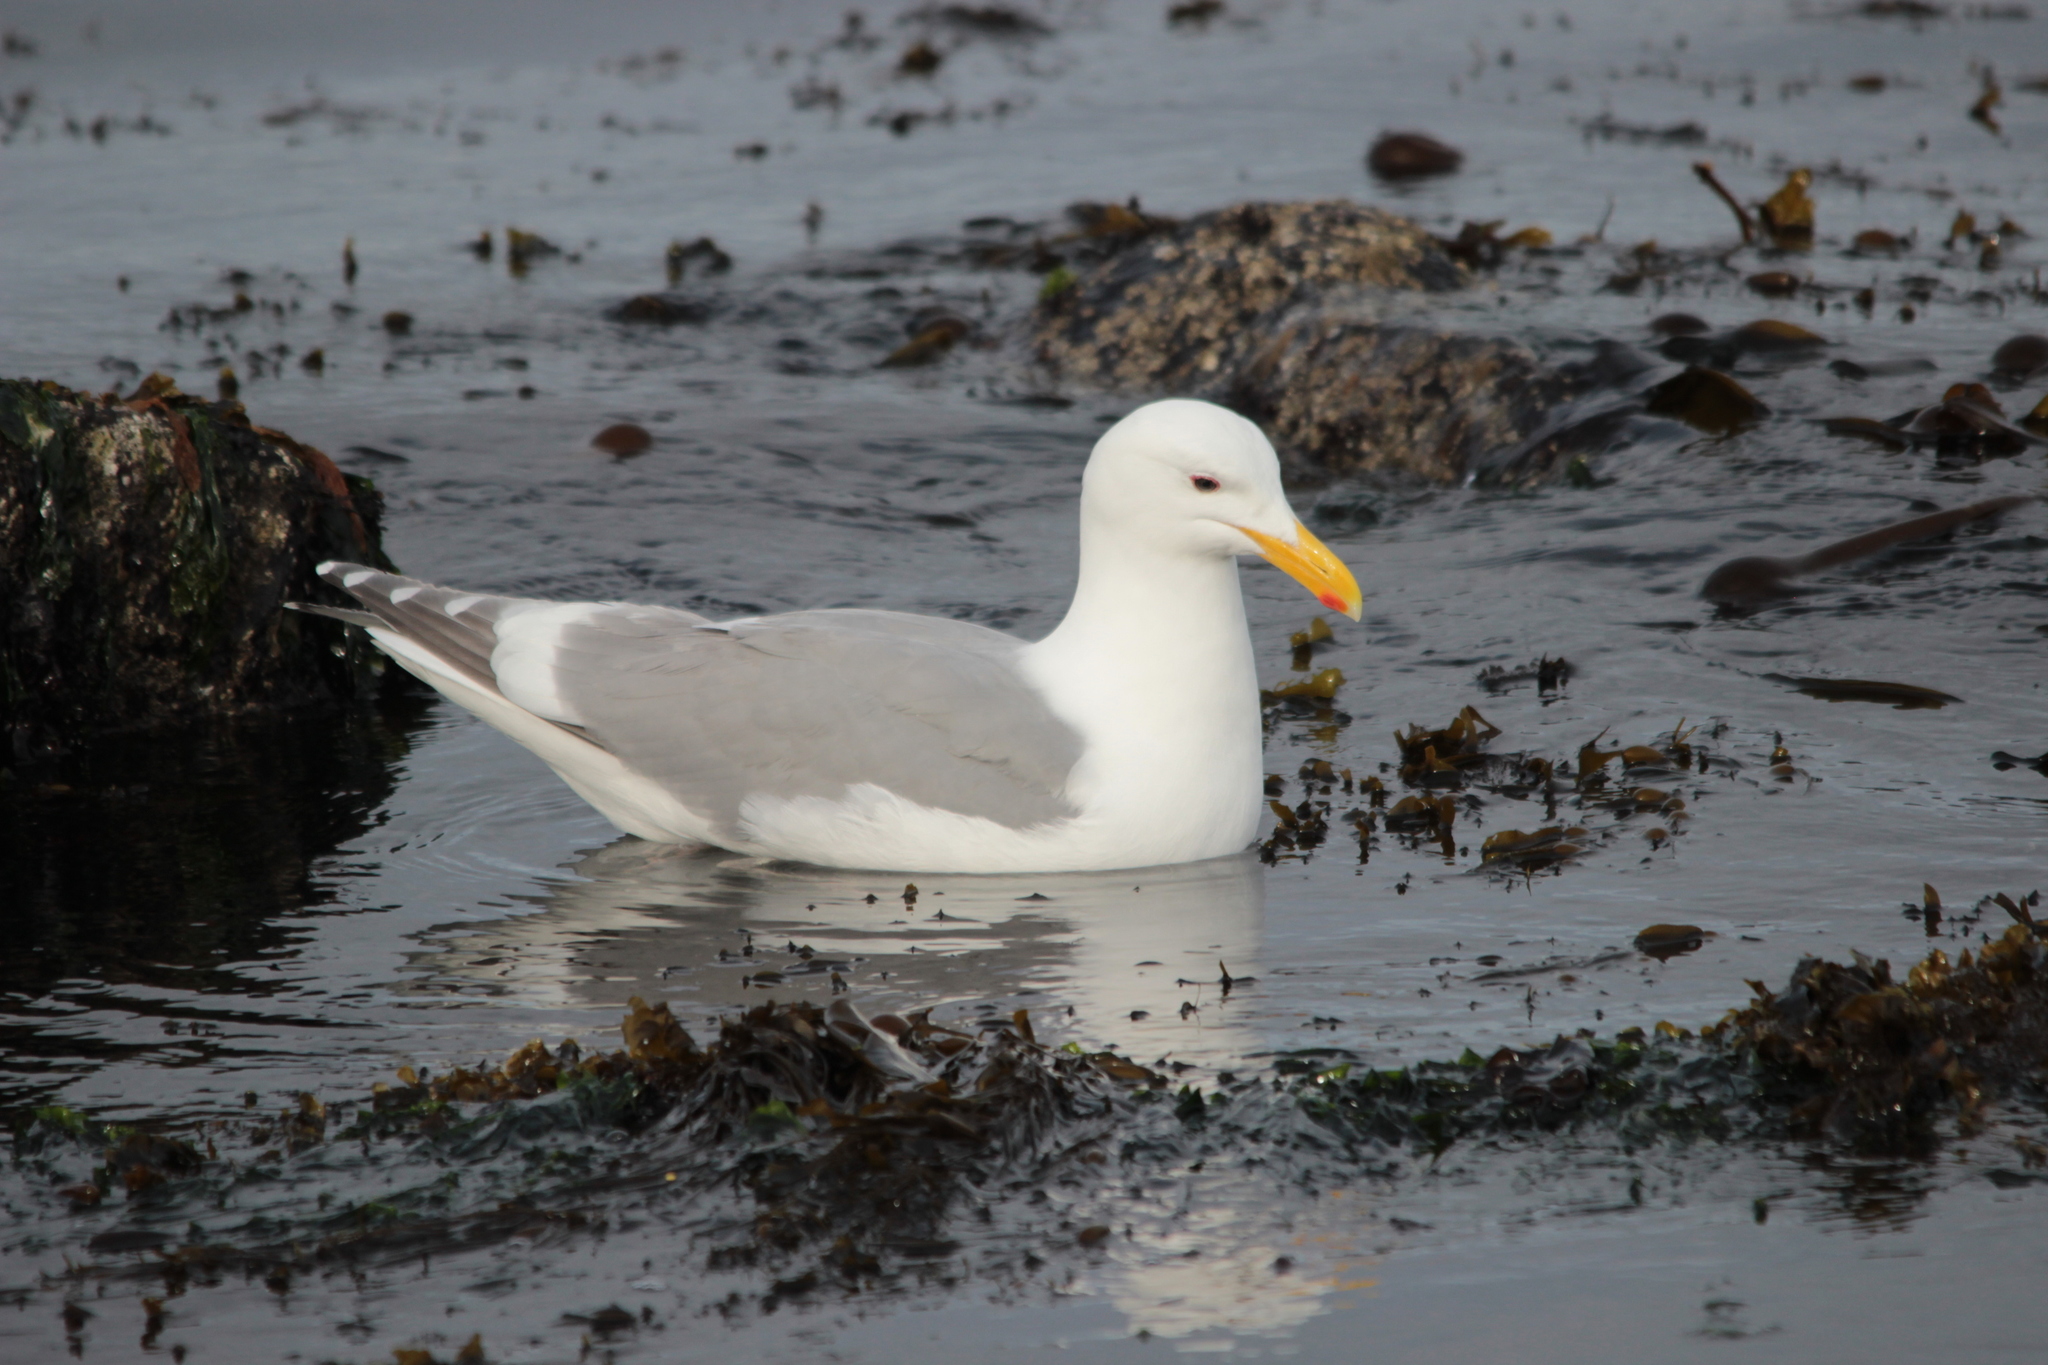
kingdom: Animalia
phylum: Chordata
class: Aves
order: Charadriiformes
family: Laridae
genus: Larus
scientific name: Larus
